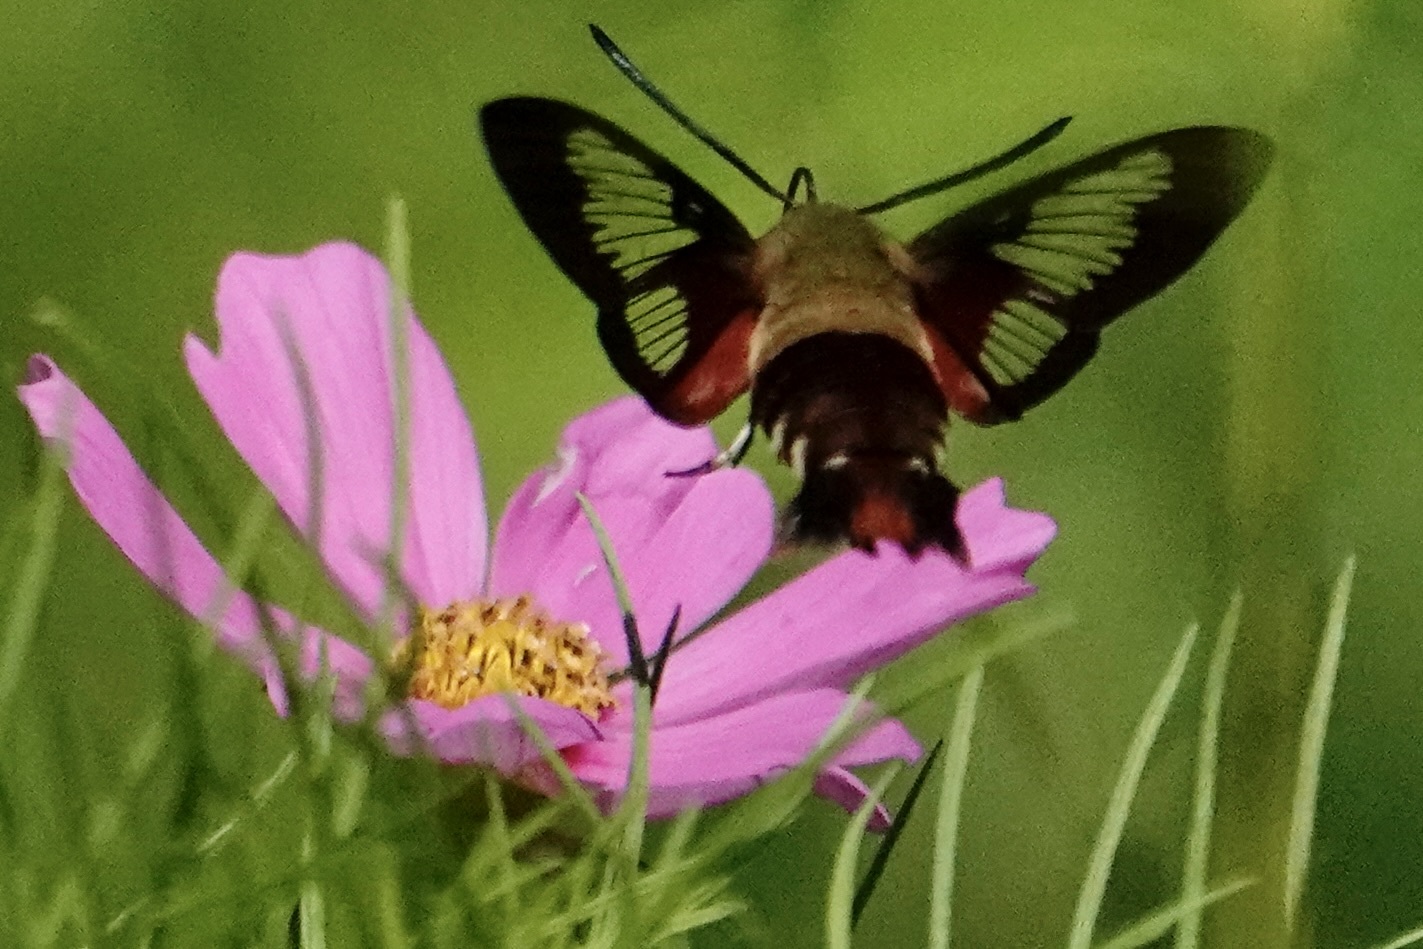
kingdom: Animalia
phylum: Arthropoda
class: Insecta
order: Lepidoptera
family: Sphingidae
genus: Hemaris
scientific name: Hemaris thysbe
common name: Common clear-wing
